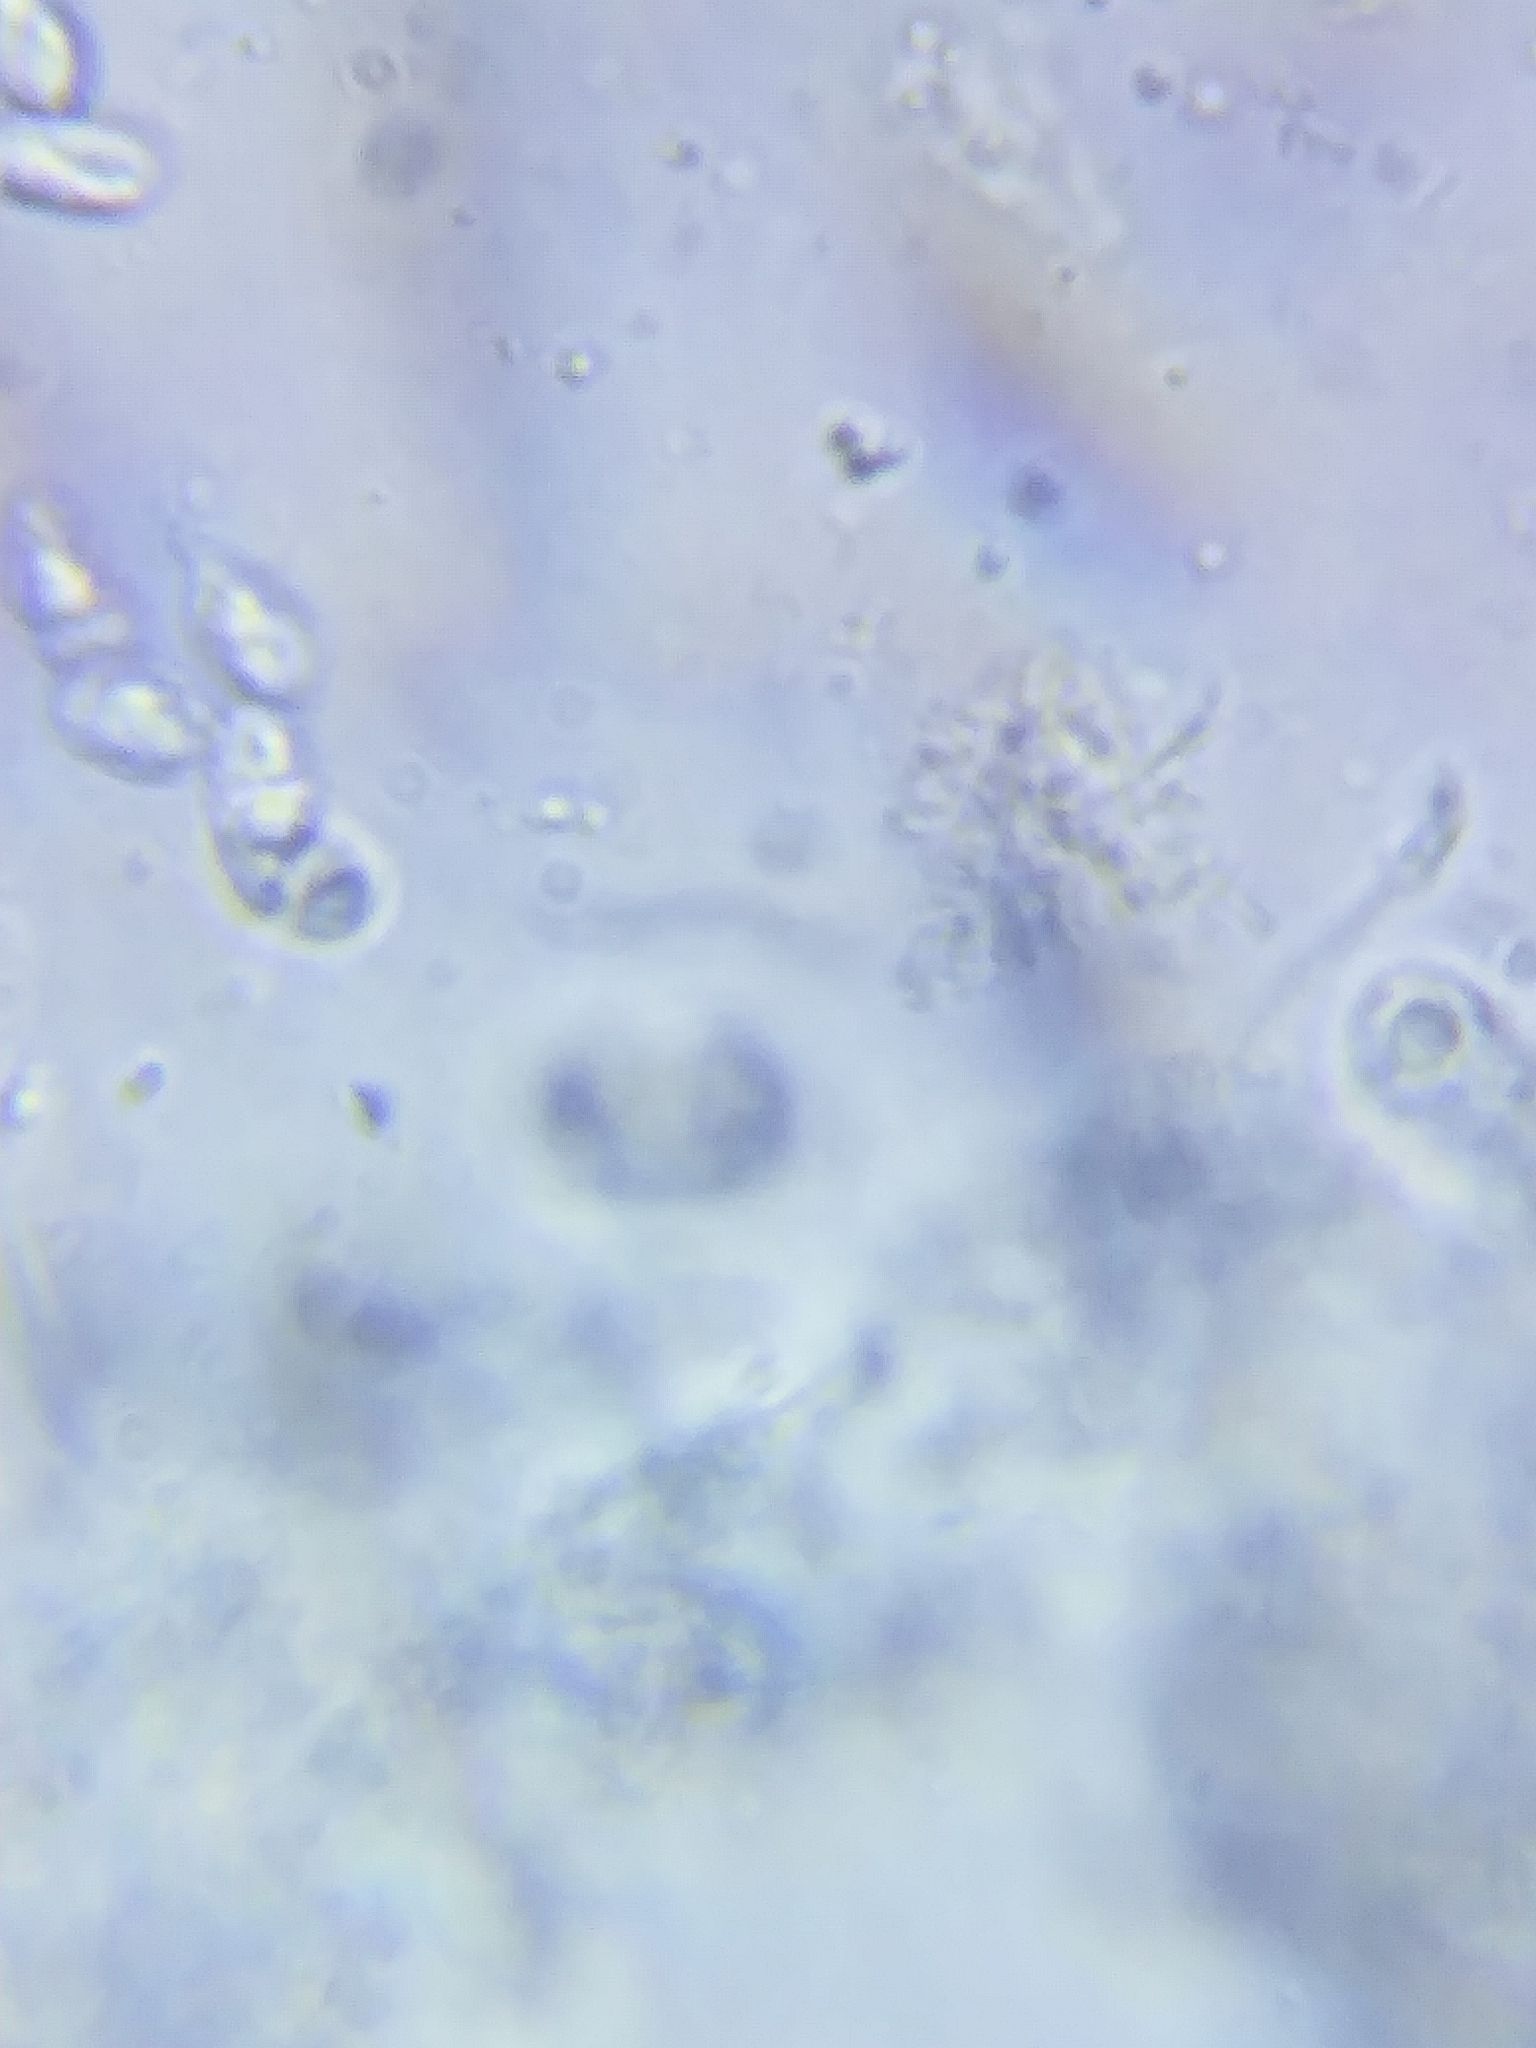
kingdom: Fungi
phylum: Basidiomycota
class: Agaricomycetes
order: Agaricales
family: Mycenaceae
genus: Mycena
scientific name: Mycena albiceps
